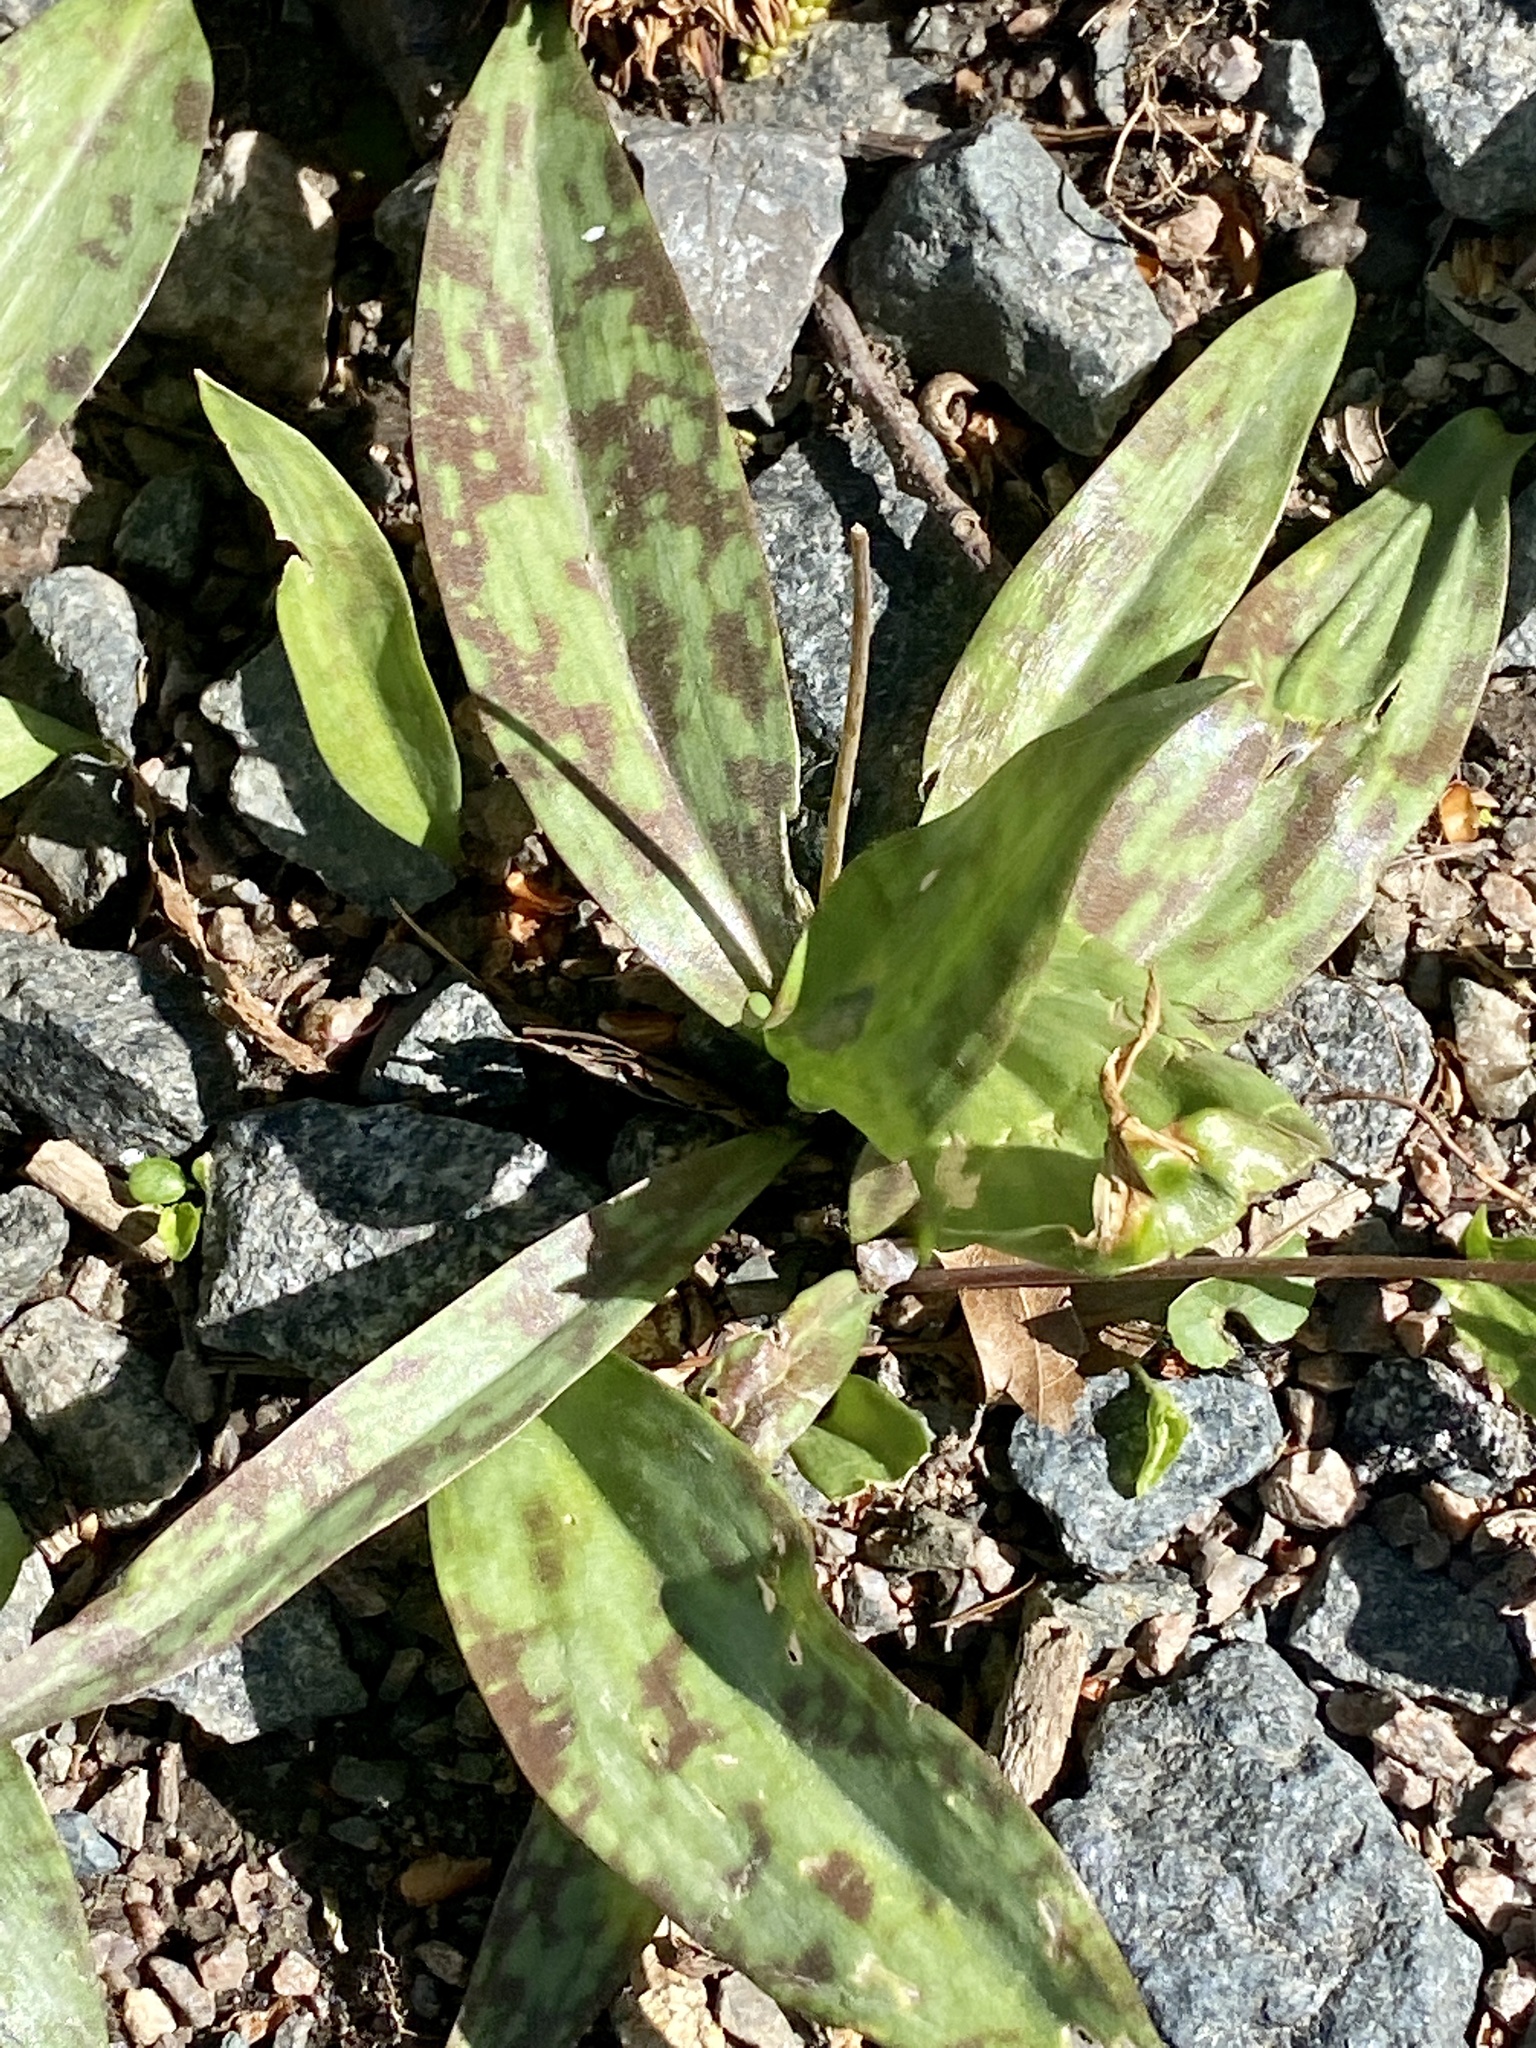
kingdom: Plantae
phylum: Tracheophyta
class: Liliopsida
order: Liliales
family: Liliaceae
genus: Erythronium
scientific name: Erythronium americanum
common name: Yellow adder's-tongue
